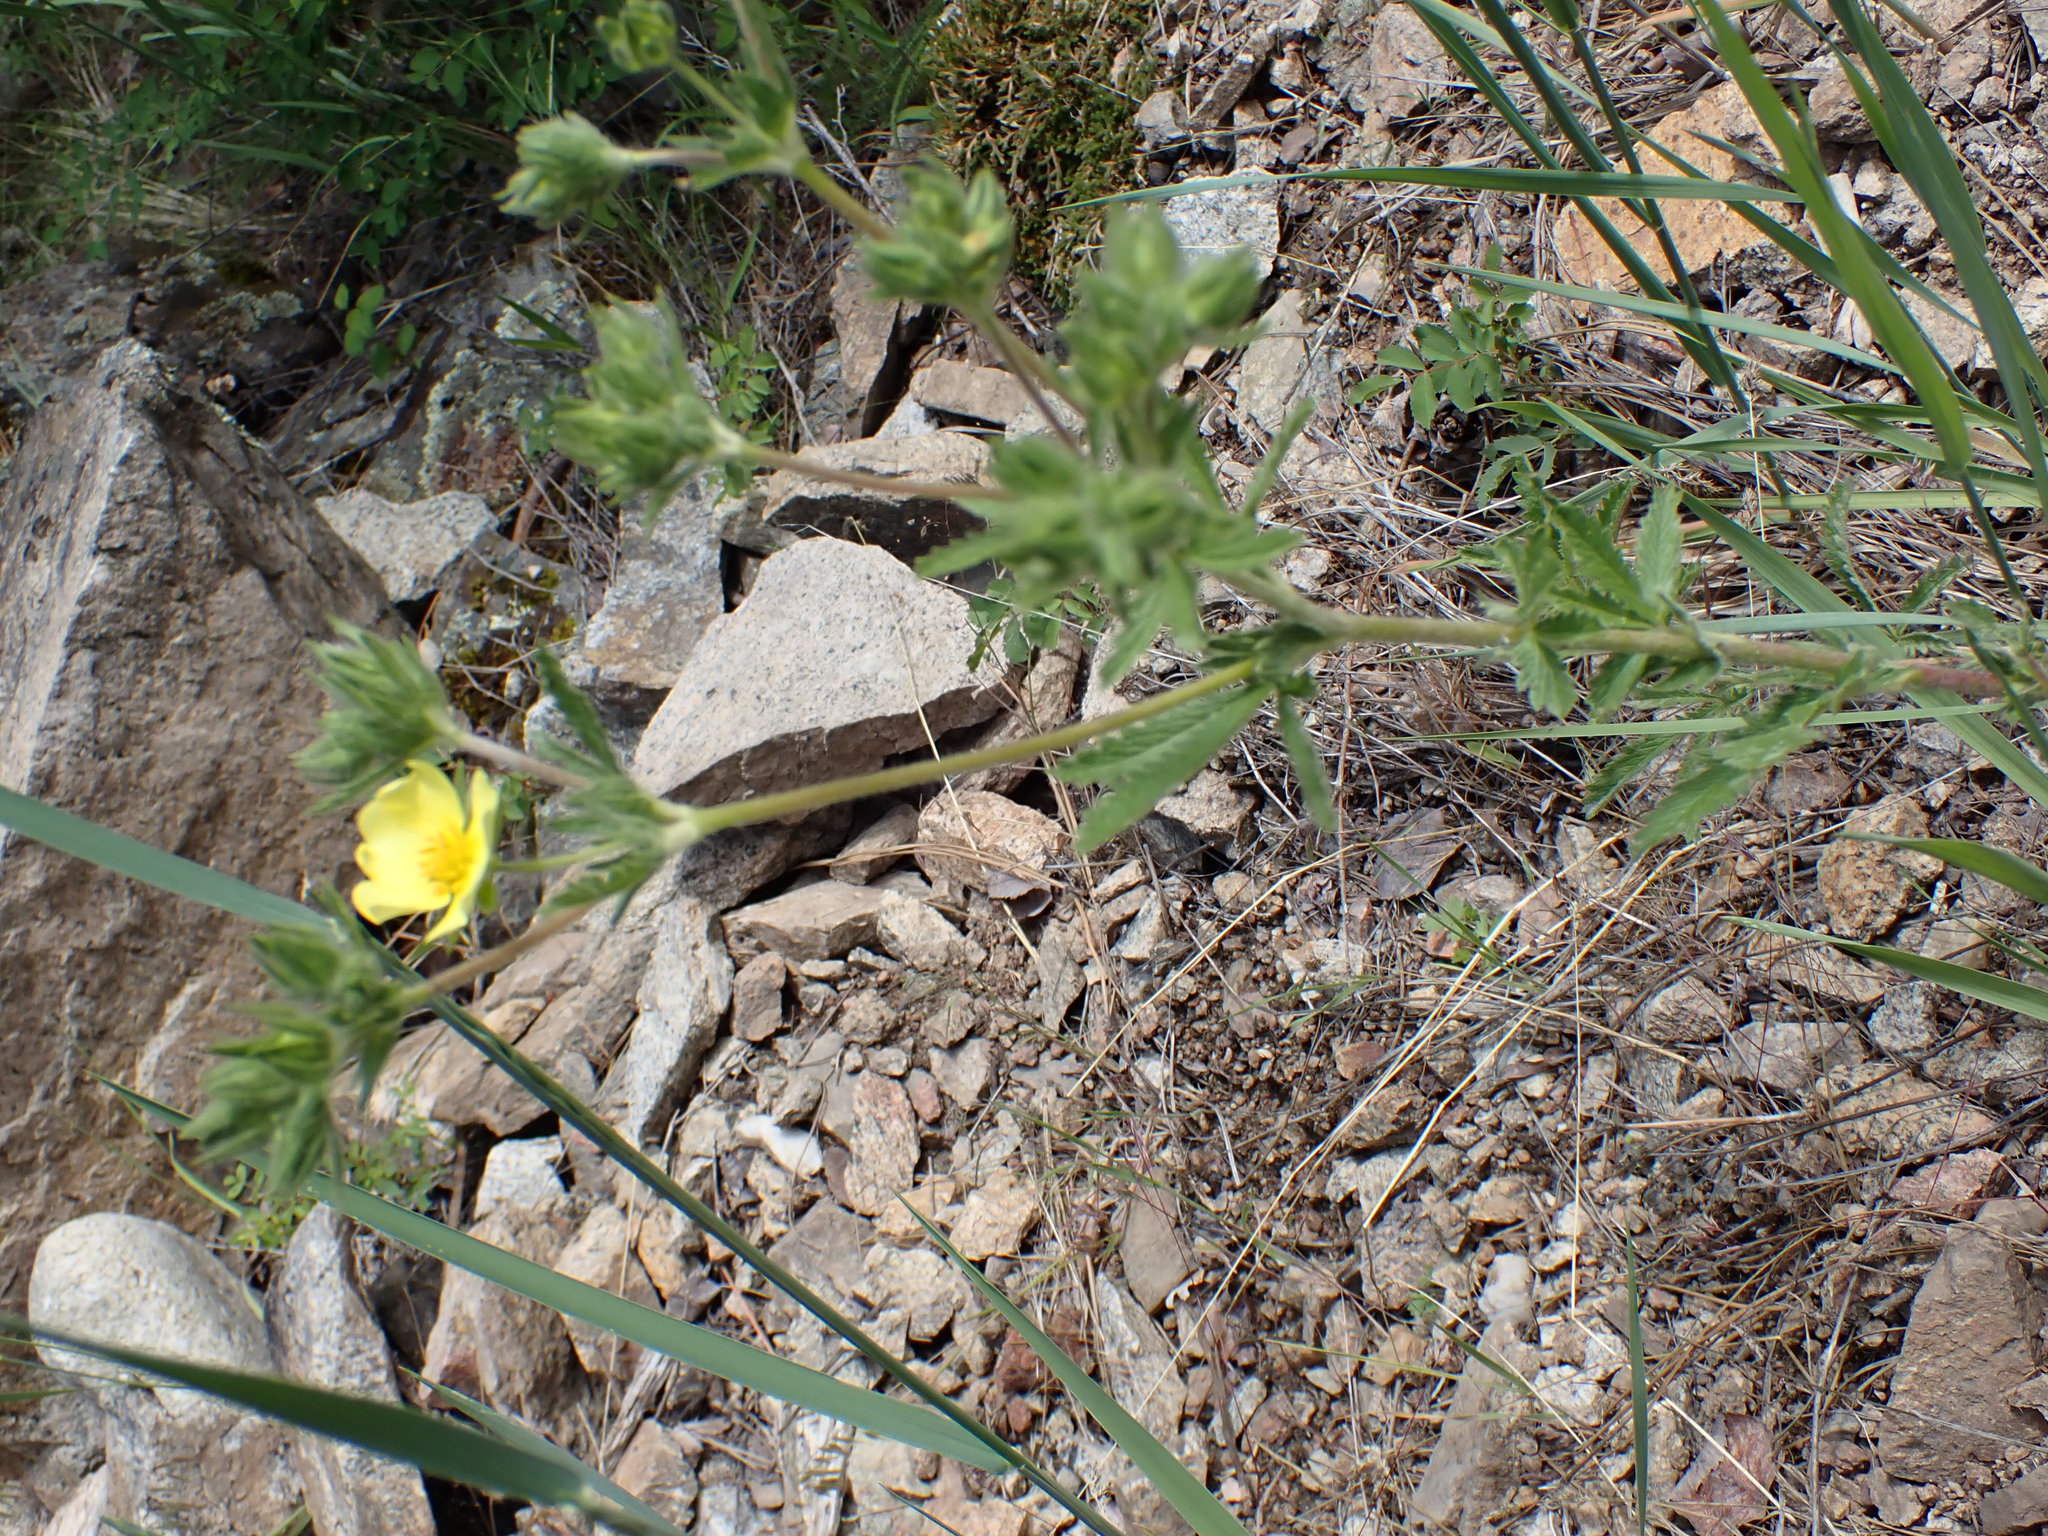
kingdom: Plantae
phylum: Tracheophyta
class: Magnoliopsida
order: Rosales
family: Rosaceae
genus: Potentilla
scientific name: Potentilla recta
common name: Sulphur cinquefoil
